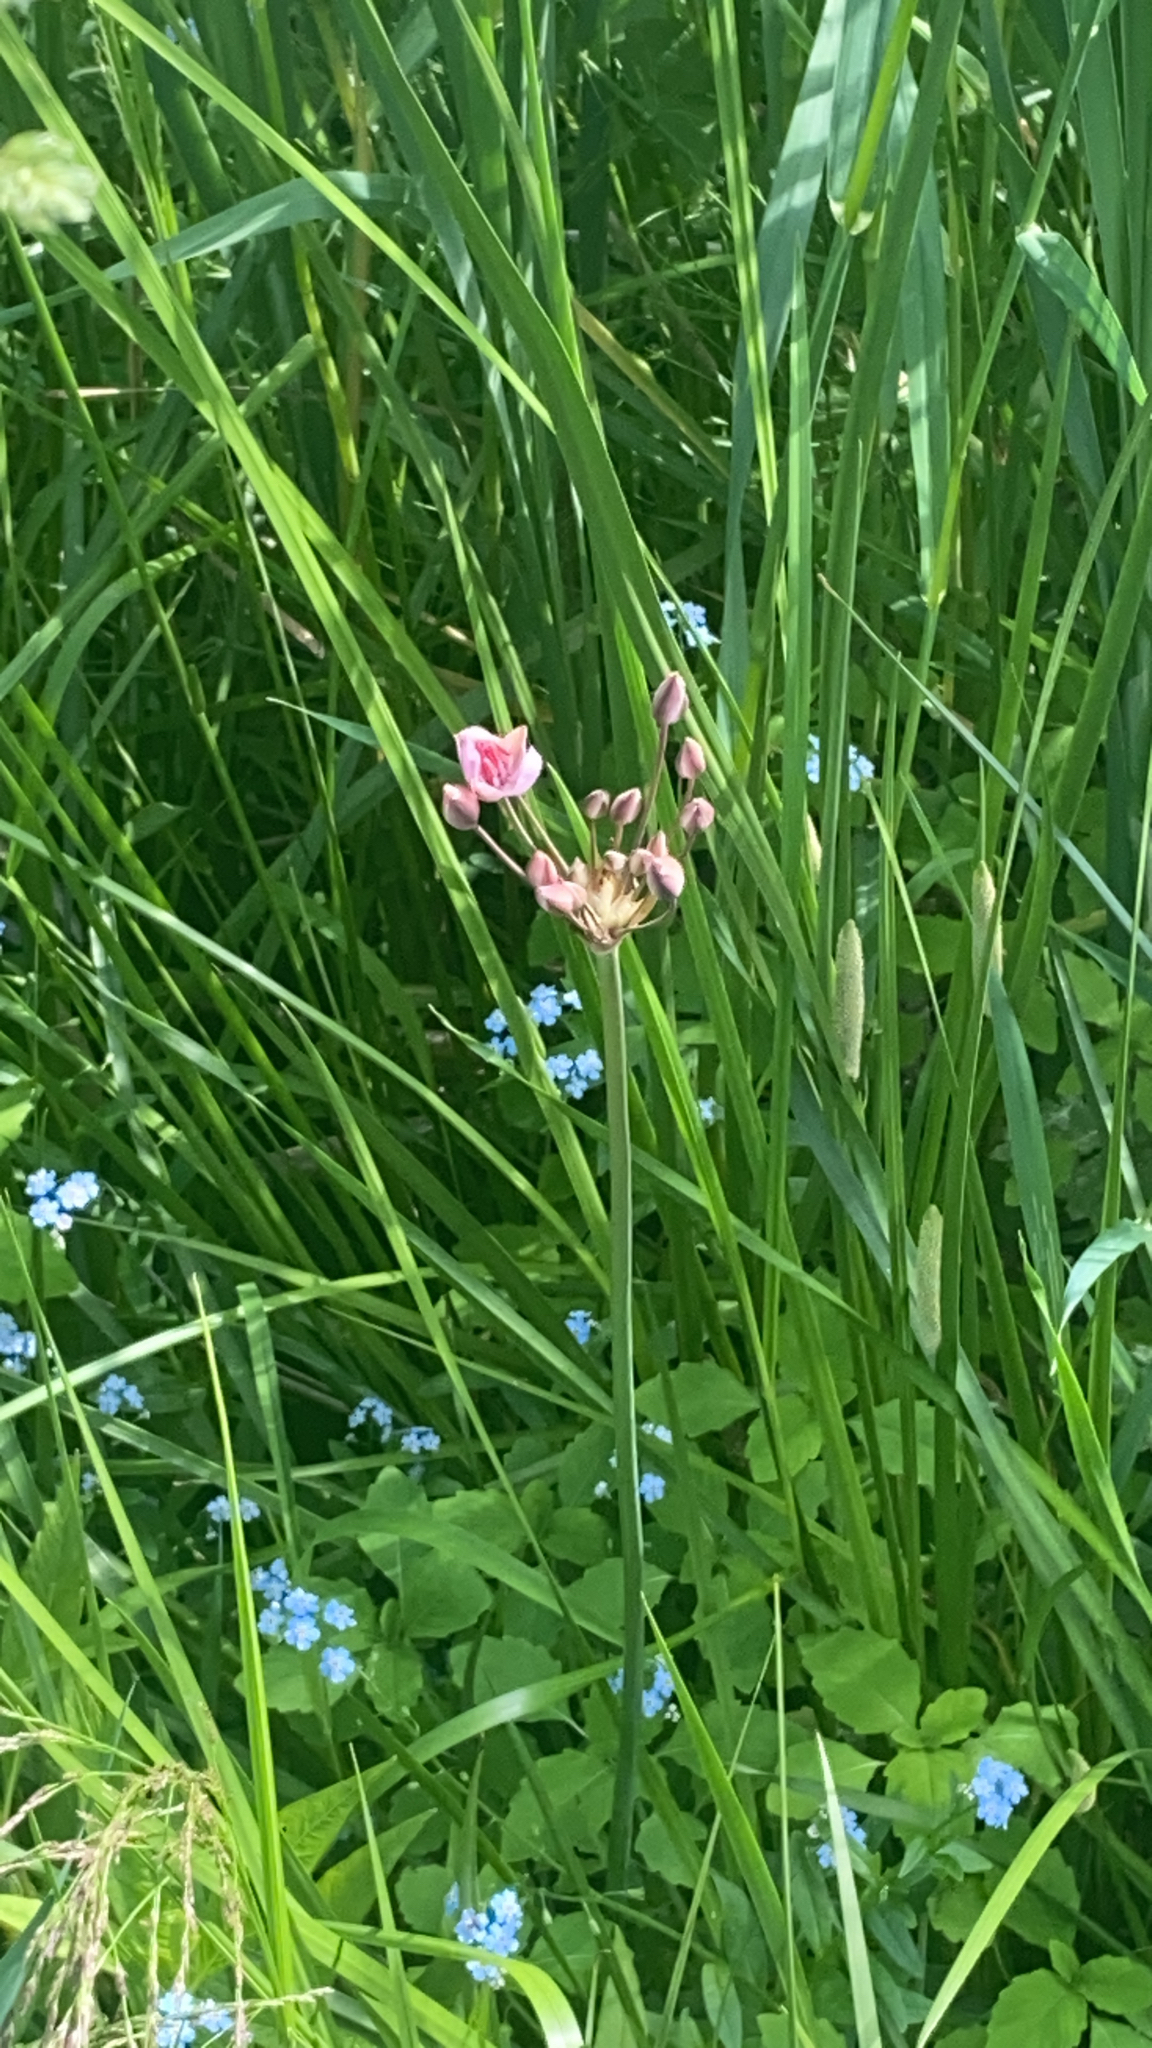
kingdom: Plantae
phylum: Tracheophyta
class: Liliopsida
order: Alismatales
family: Butomaceae
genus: Butomus
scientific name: Butomus umbellatus
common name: Flowering-rush
